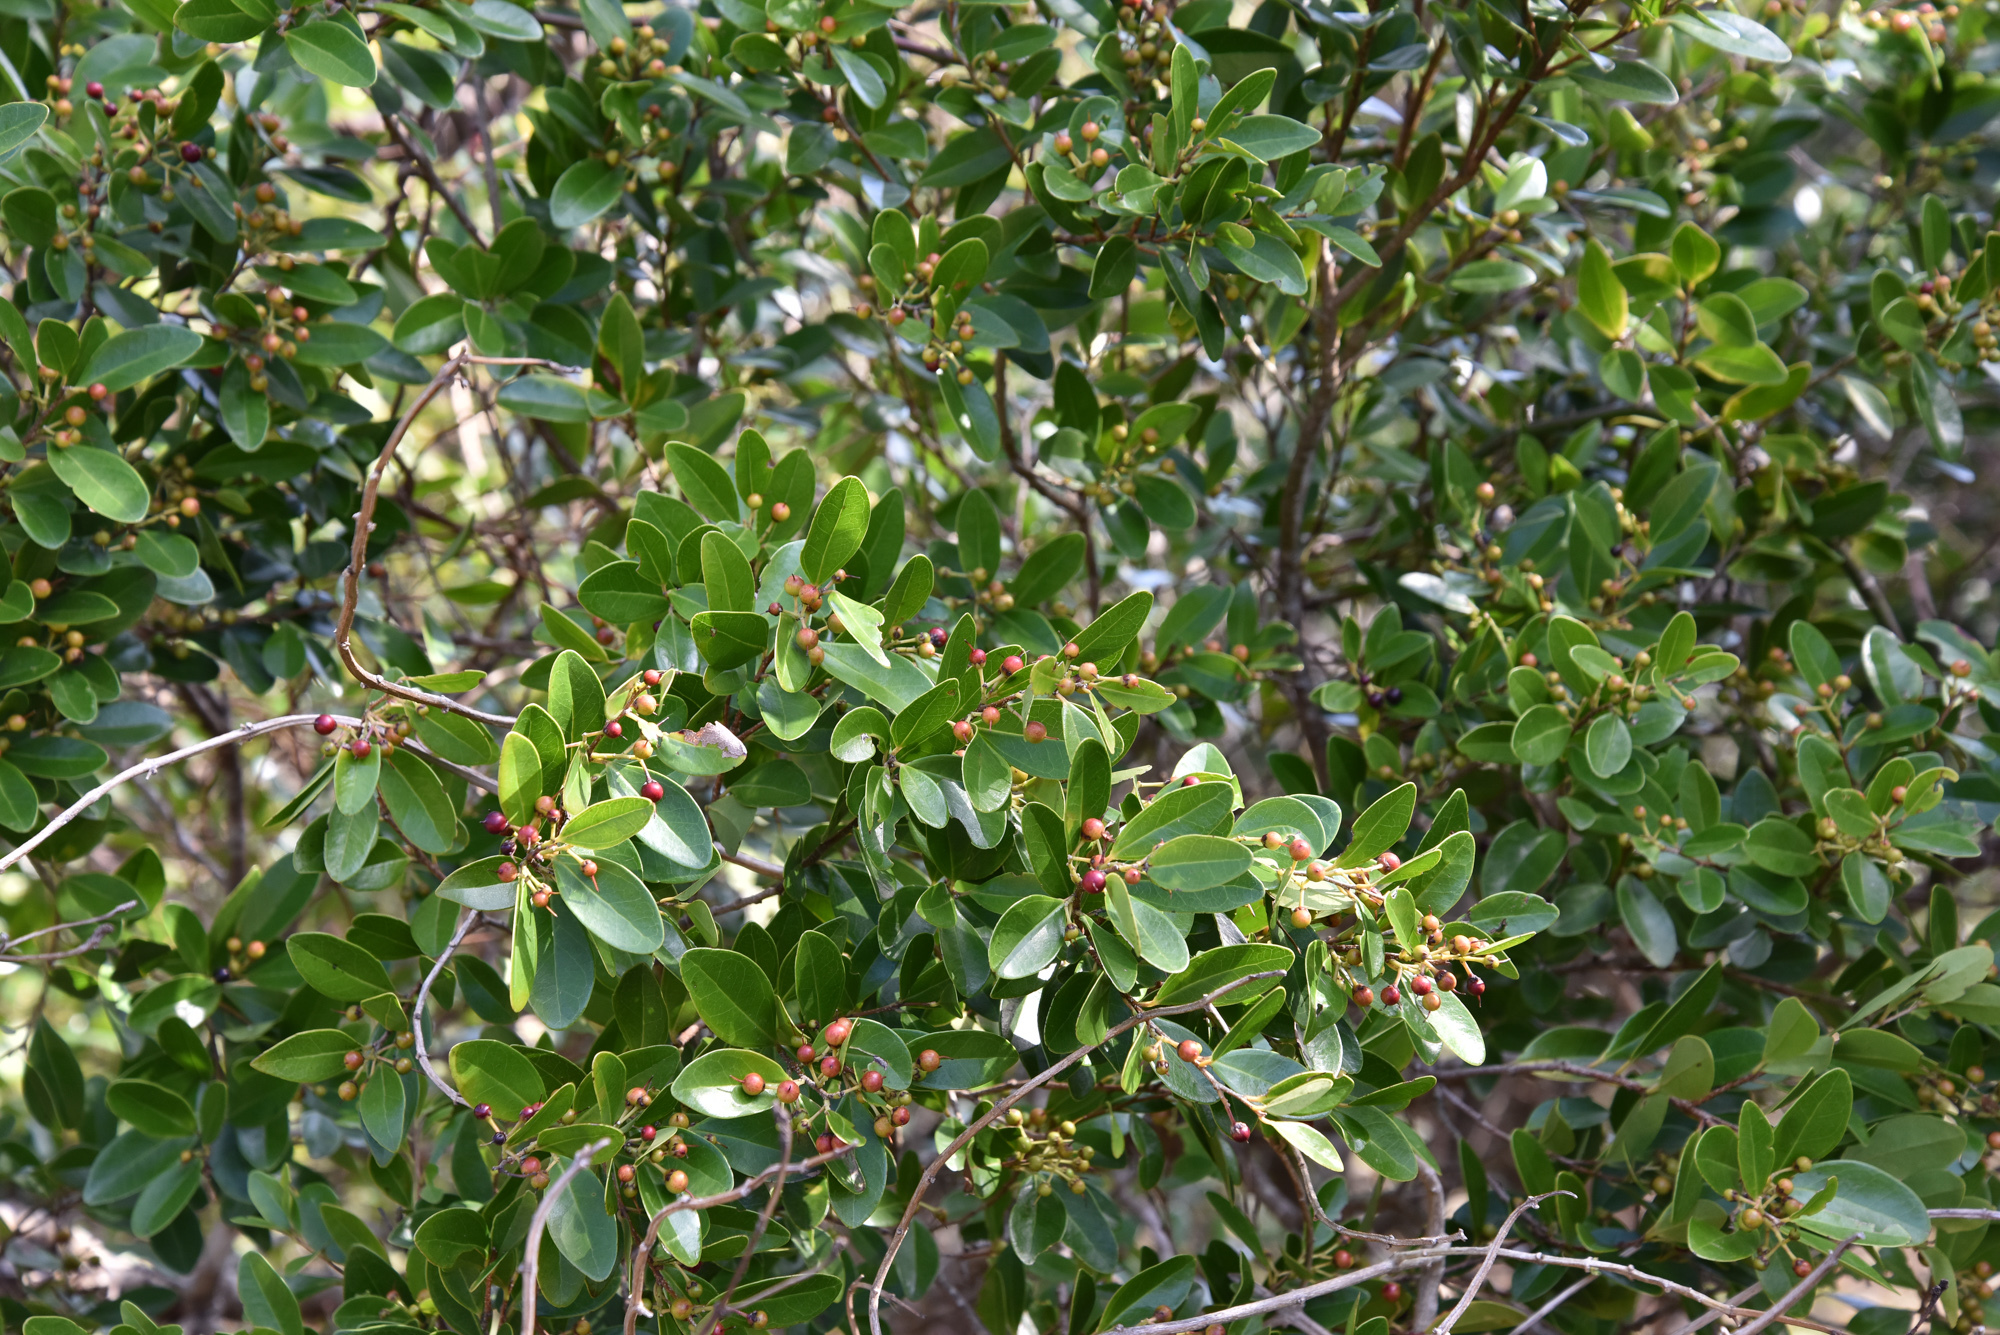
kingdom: Plantae
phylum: Tracheophyta
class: Magnoliopsida
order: Malpighiales
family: Salicaceae
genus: Scolopia
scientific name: Scolopia oldhamii
